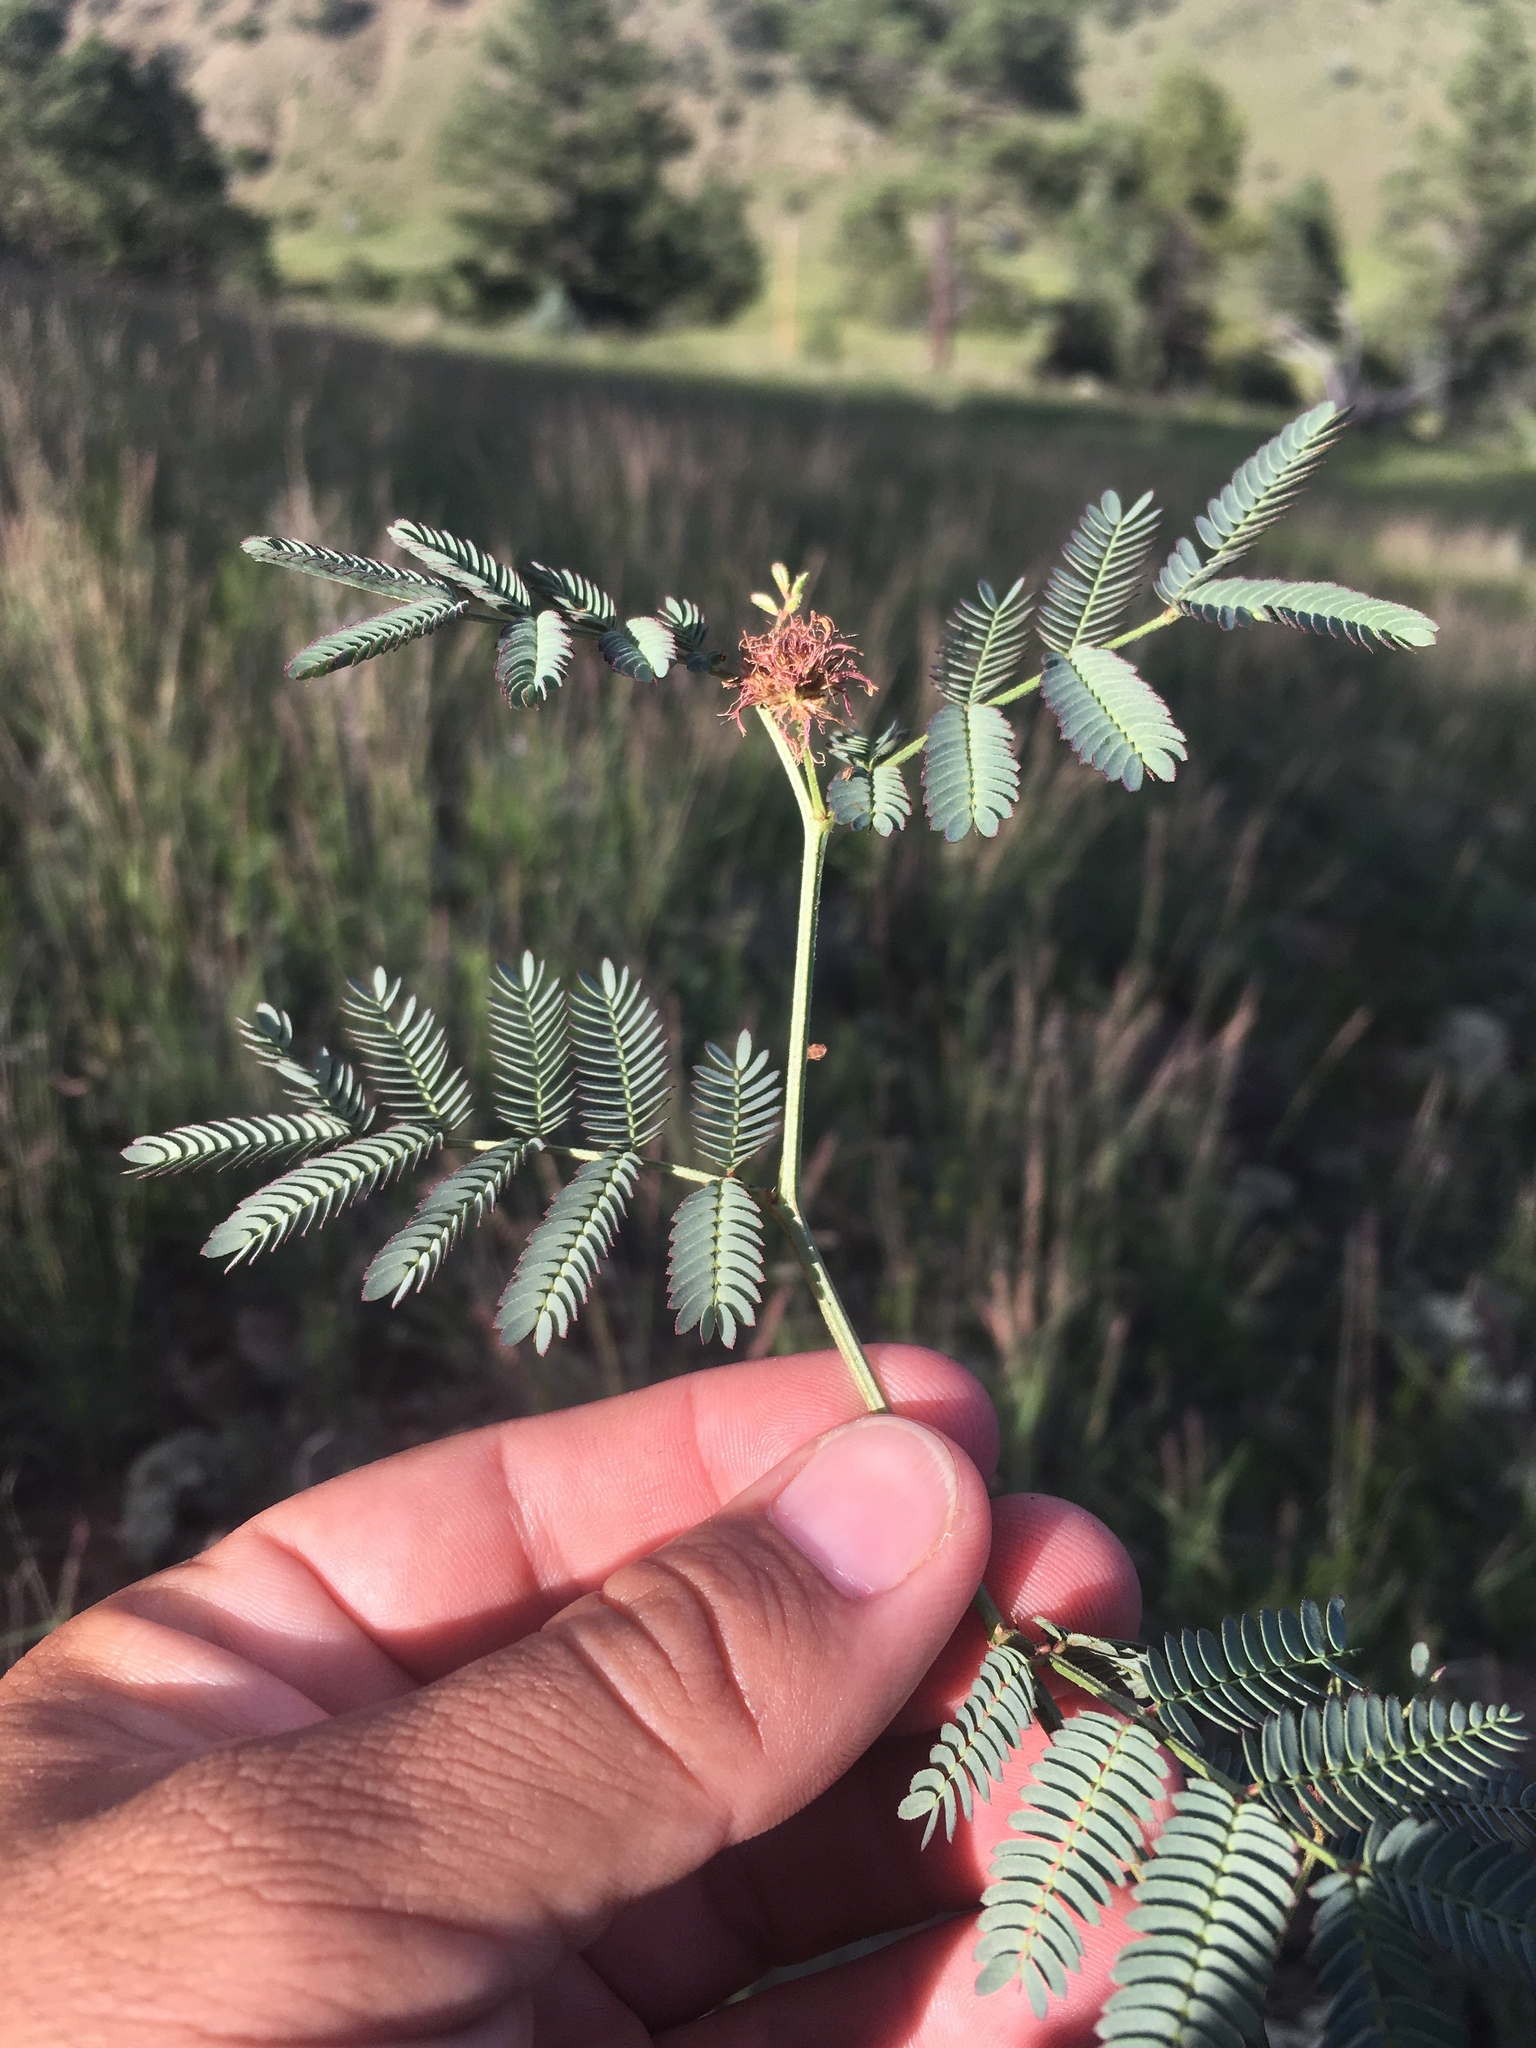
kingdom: Plantae
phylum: Tracheophyta
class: Magnoliopsida
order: Fabales
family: Fabaceae
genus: Desmanthus
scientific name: Desmanthus cooleyi
